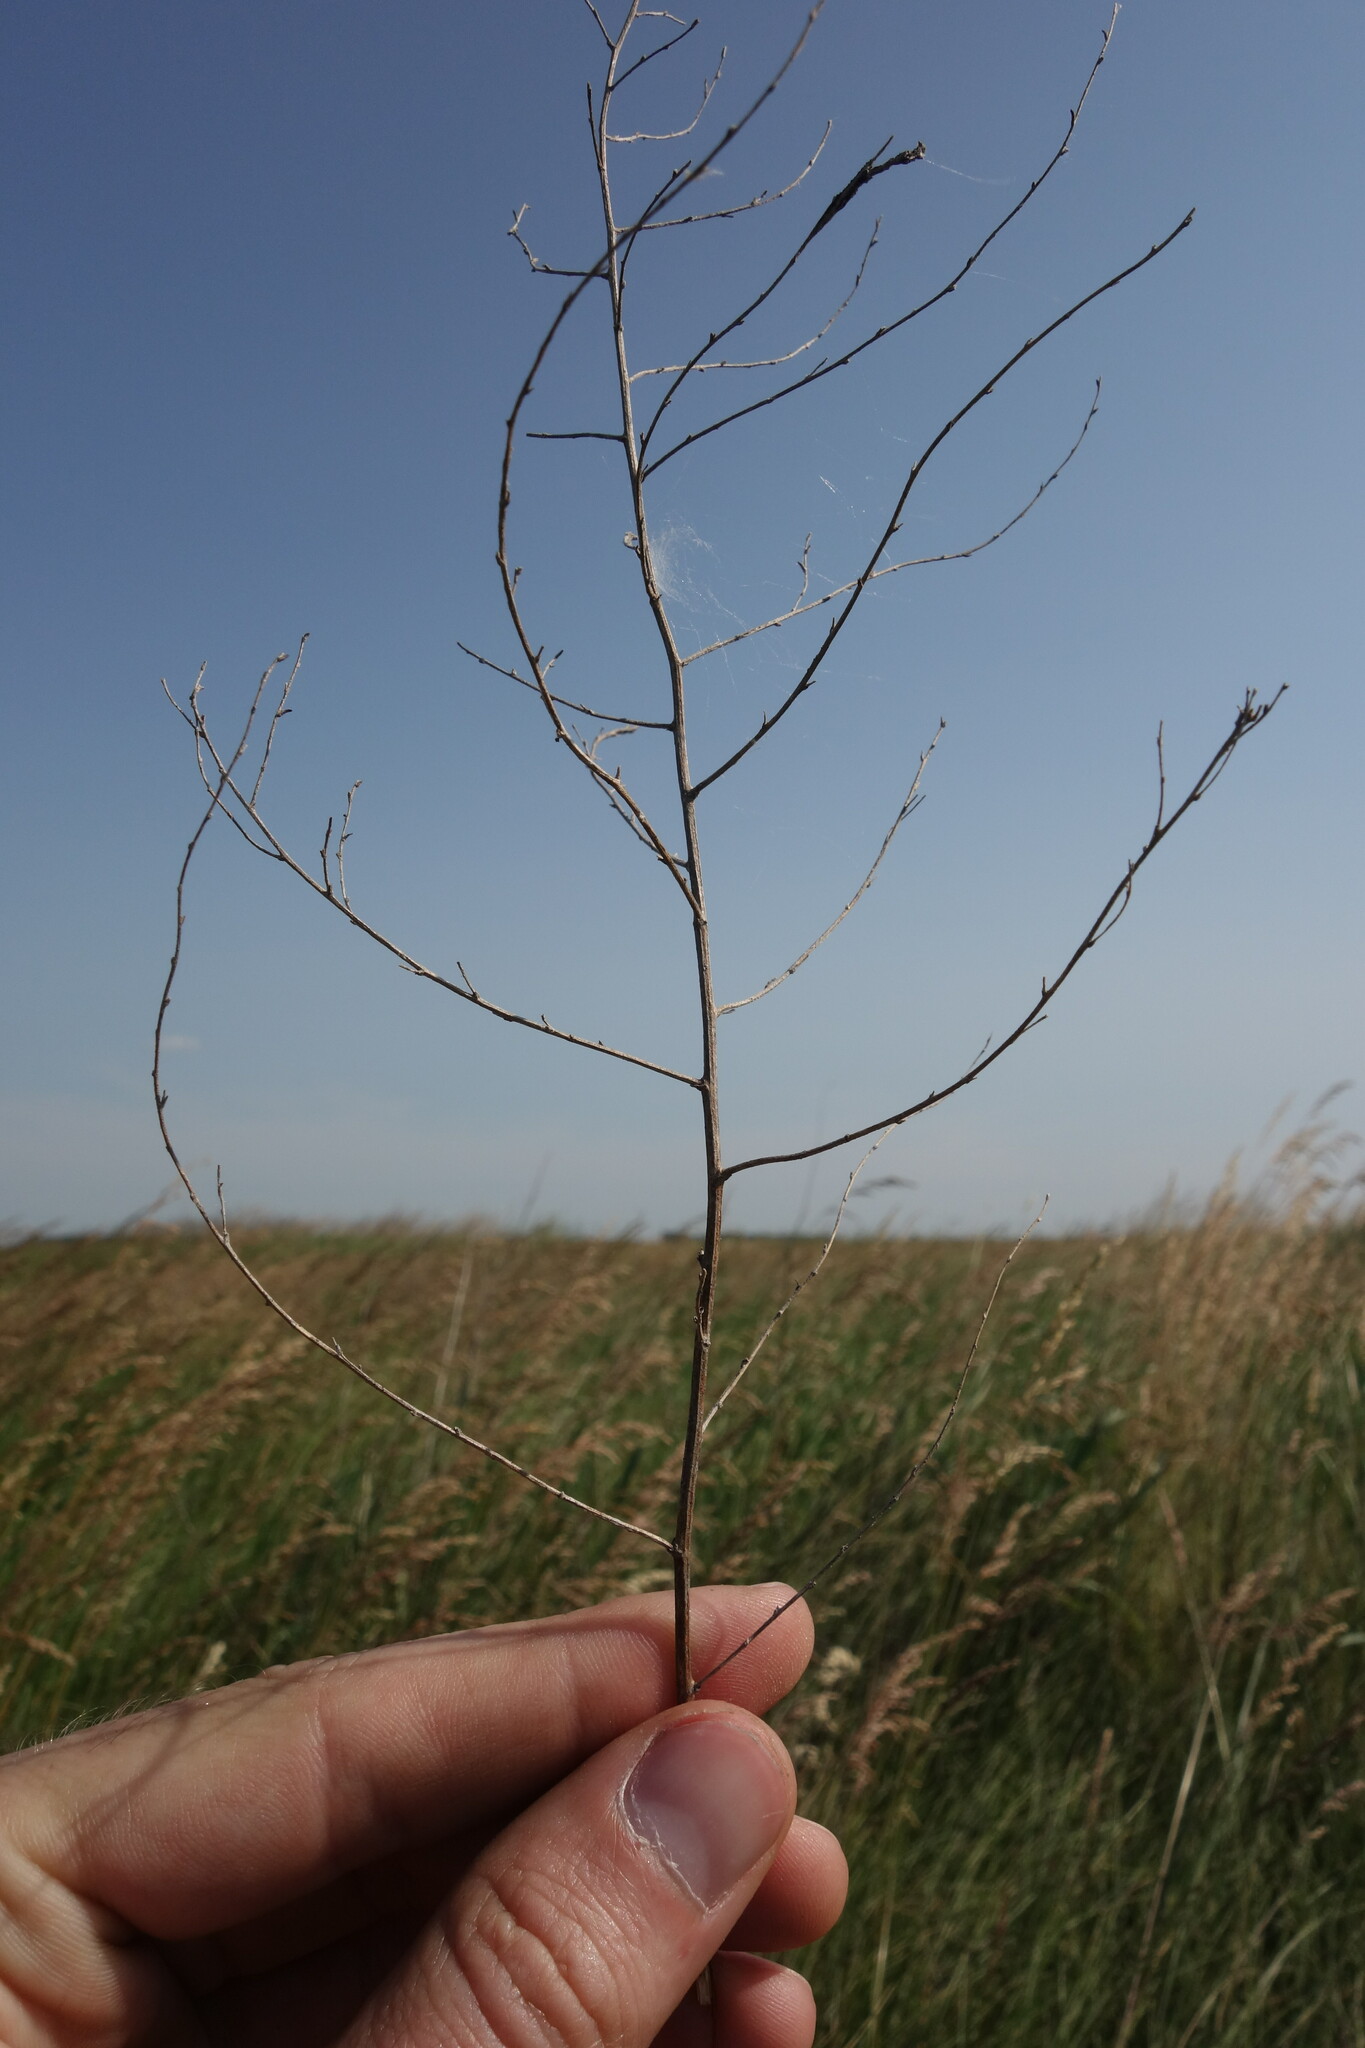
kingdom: Plantae
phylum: Tracheophyta
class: Magnoliopsida
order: Asterales
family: Asteraceae
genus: Artemisia
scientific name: Artemisia santonicum
